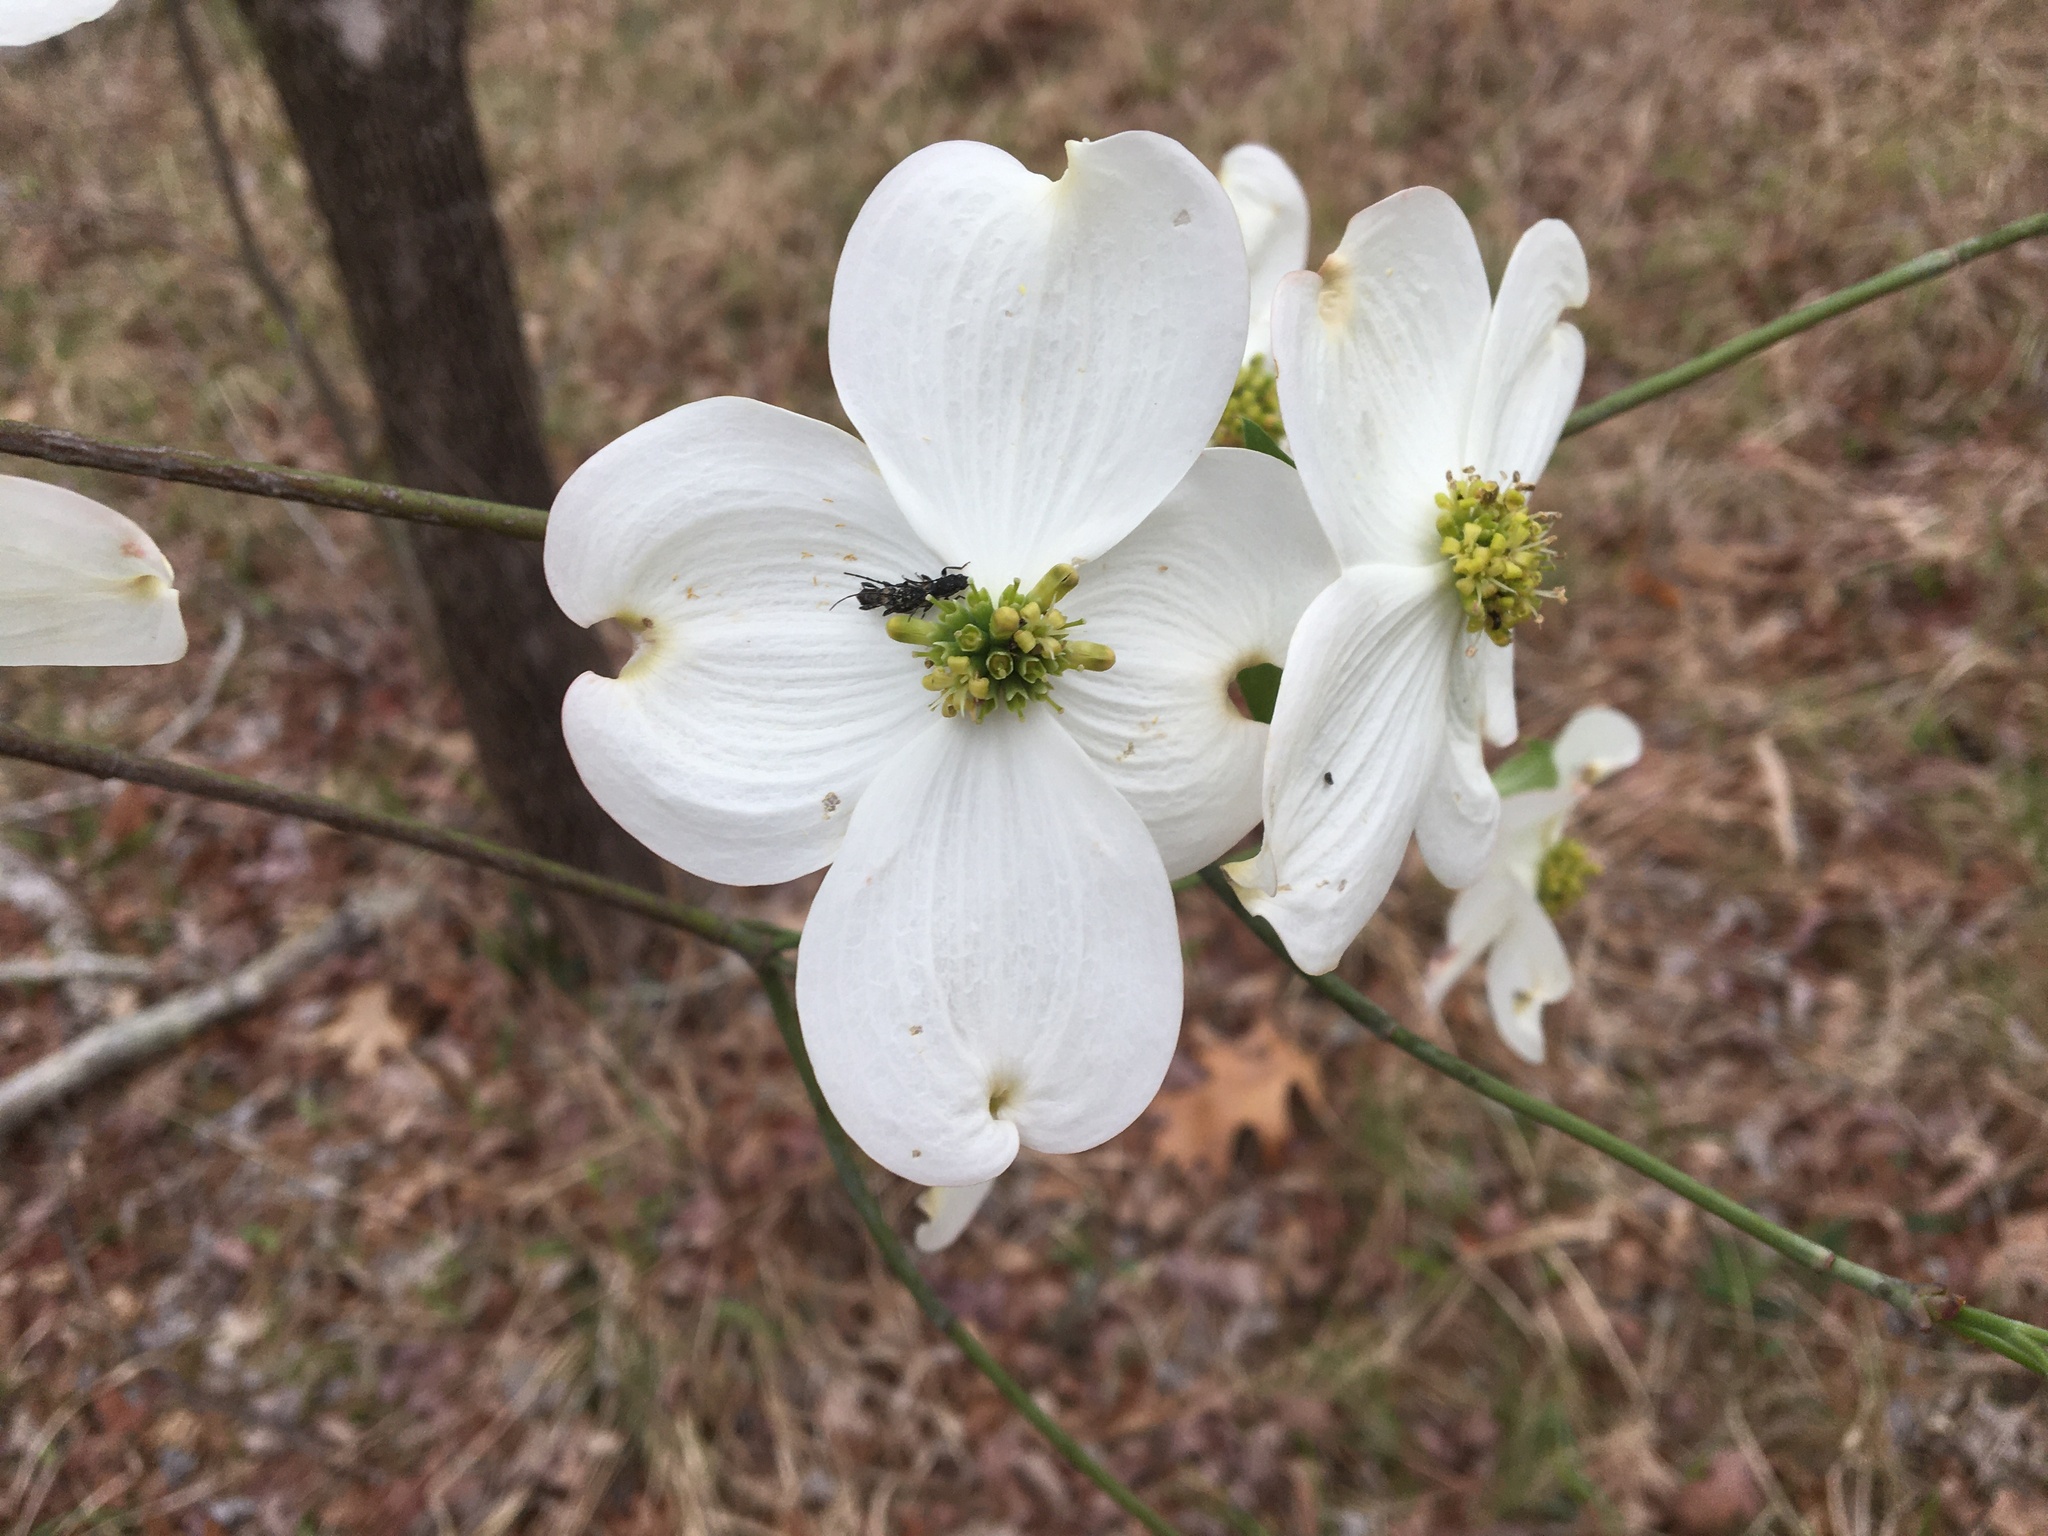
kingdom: Plantae
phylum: Tracheophyta
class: Magnoliopsida
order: Cornales
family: Cornaceae
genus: Cornus
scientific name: Cornus florida
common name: Flowering dogwood
